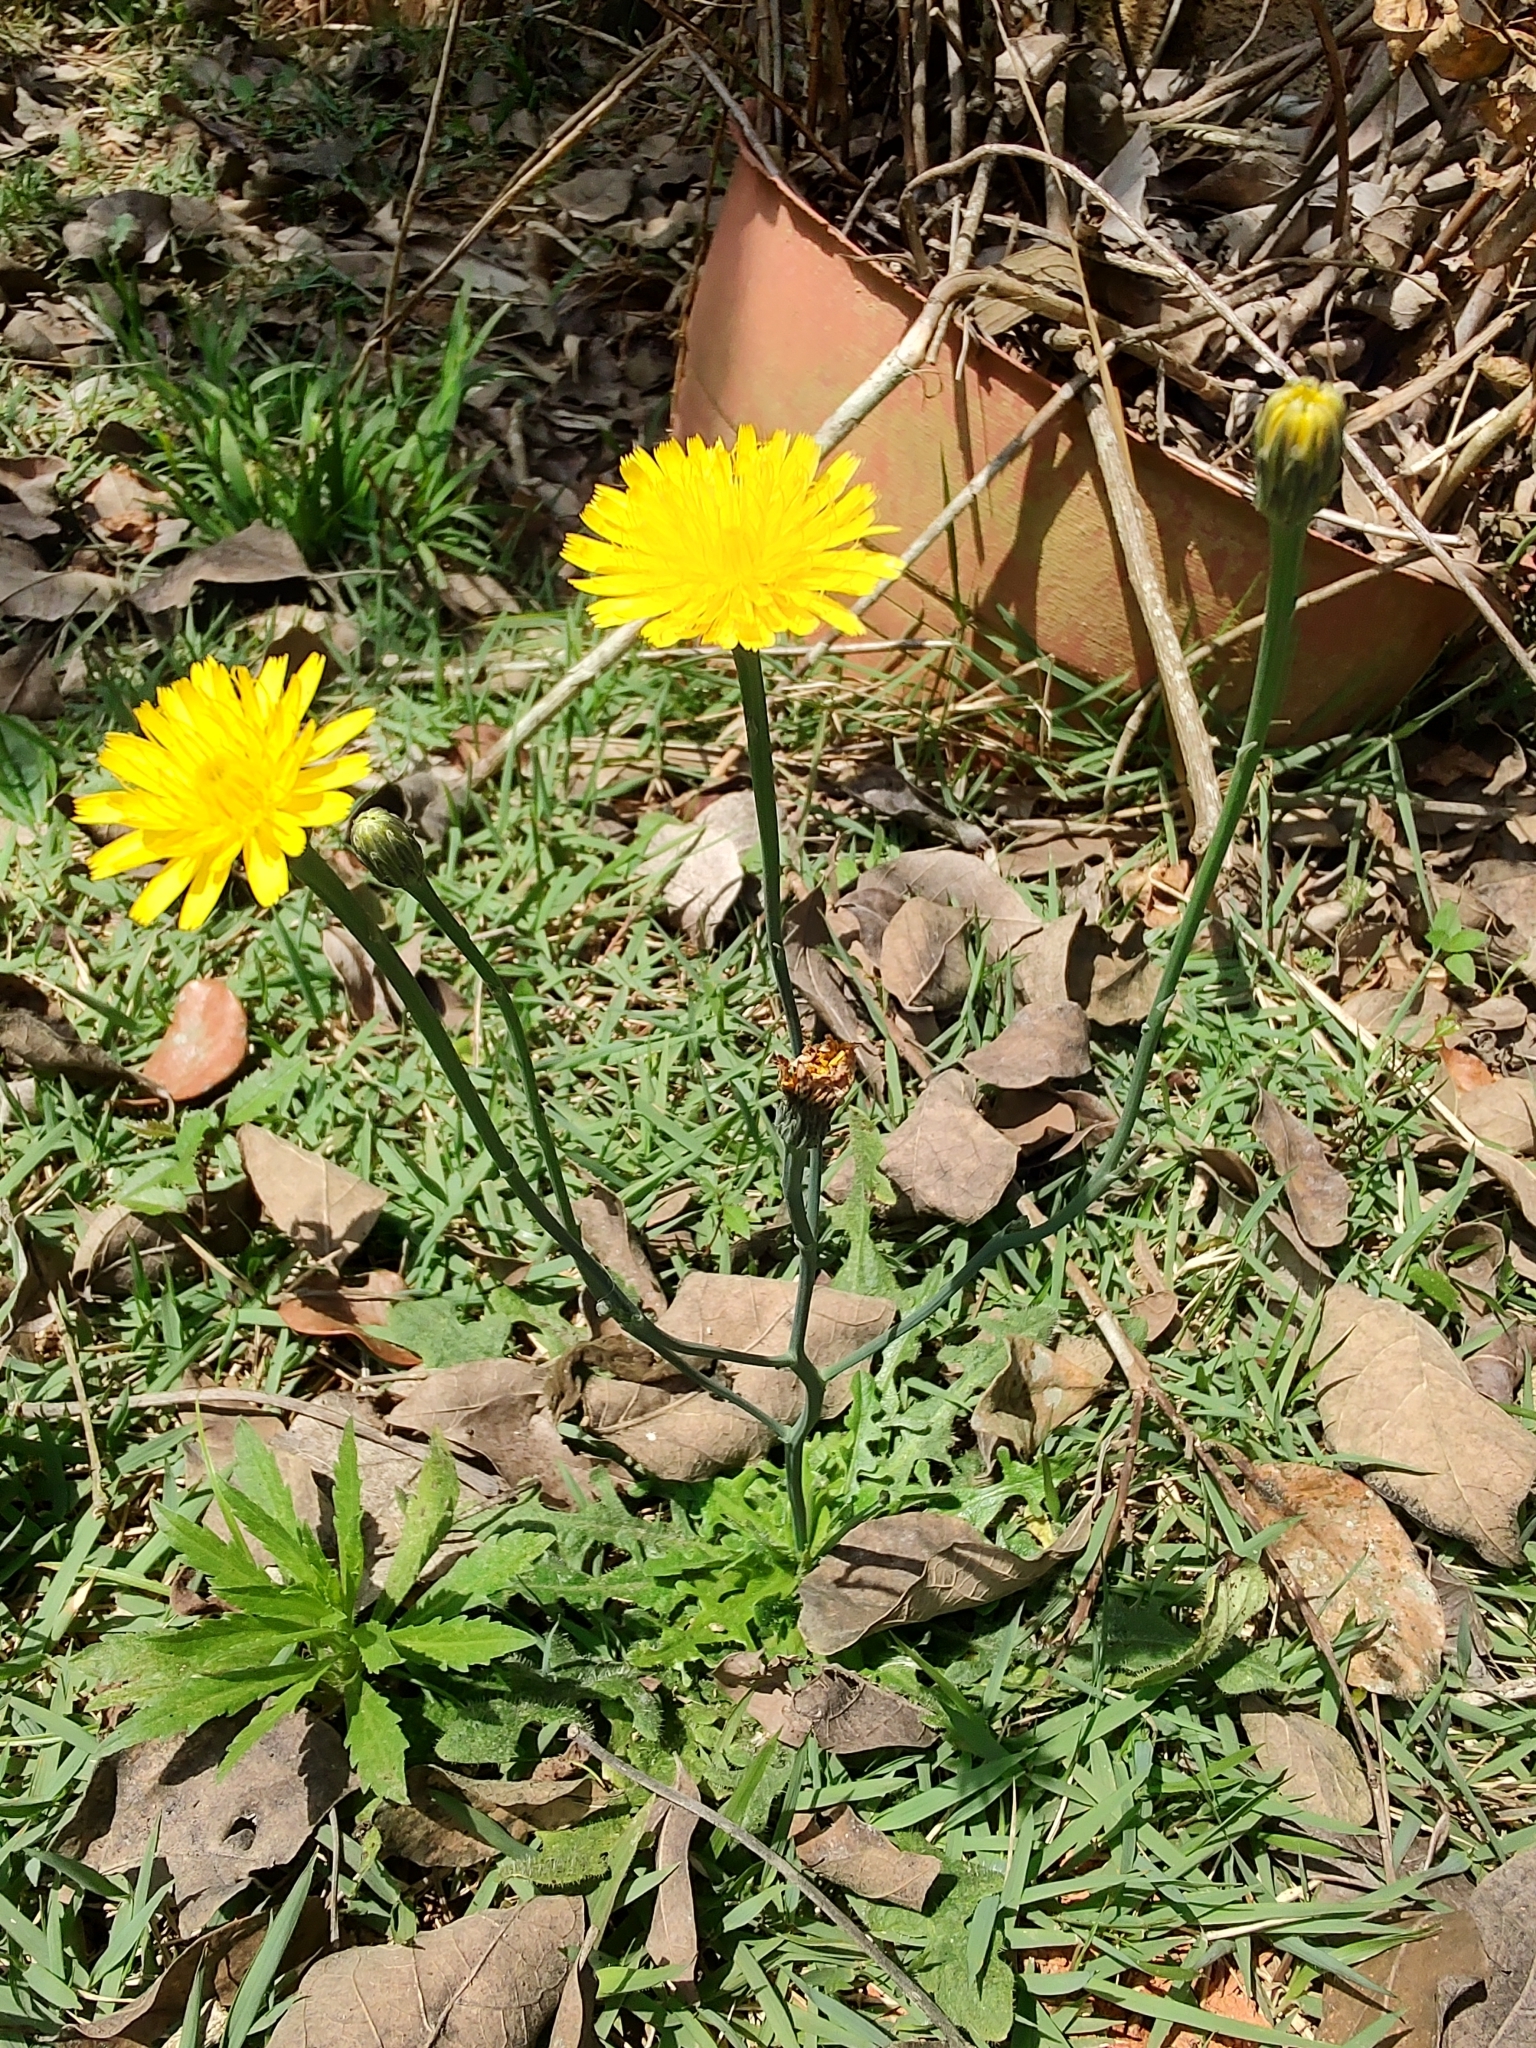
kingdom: Plantae
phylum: Tracheophyta
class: Magnoliopsida
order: Asterales
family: Asteraceae
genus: Hypochaeris
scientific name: Hypochaeris radicata
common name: Flatweed
